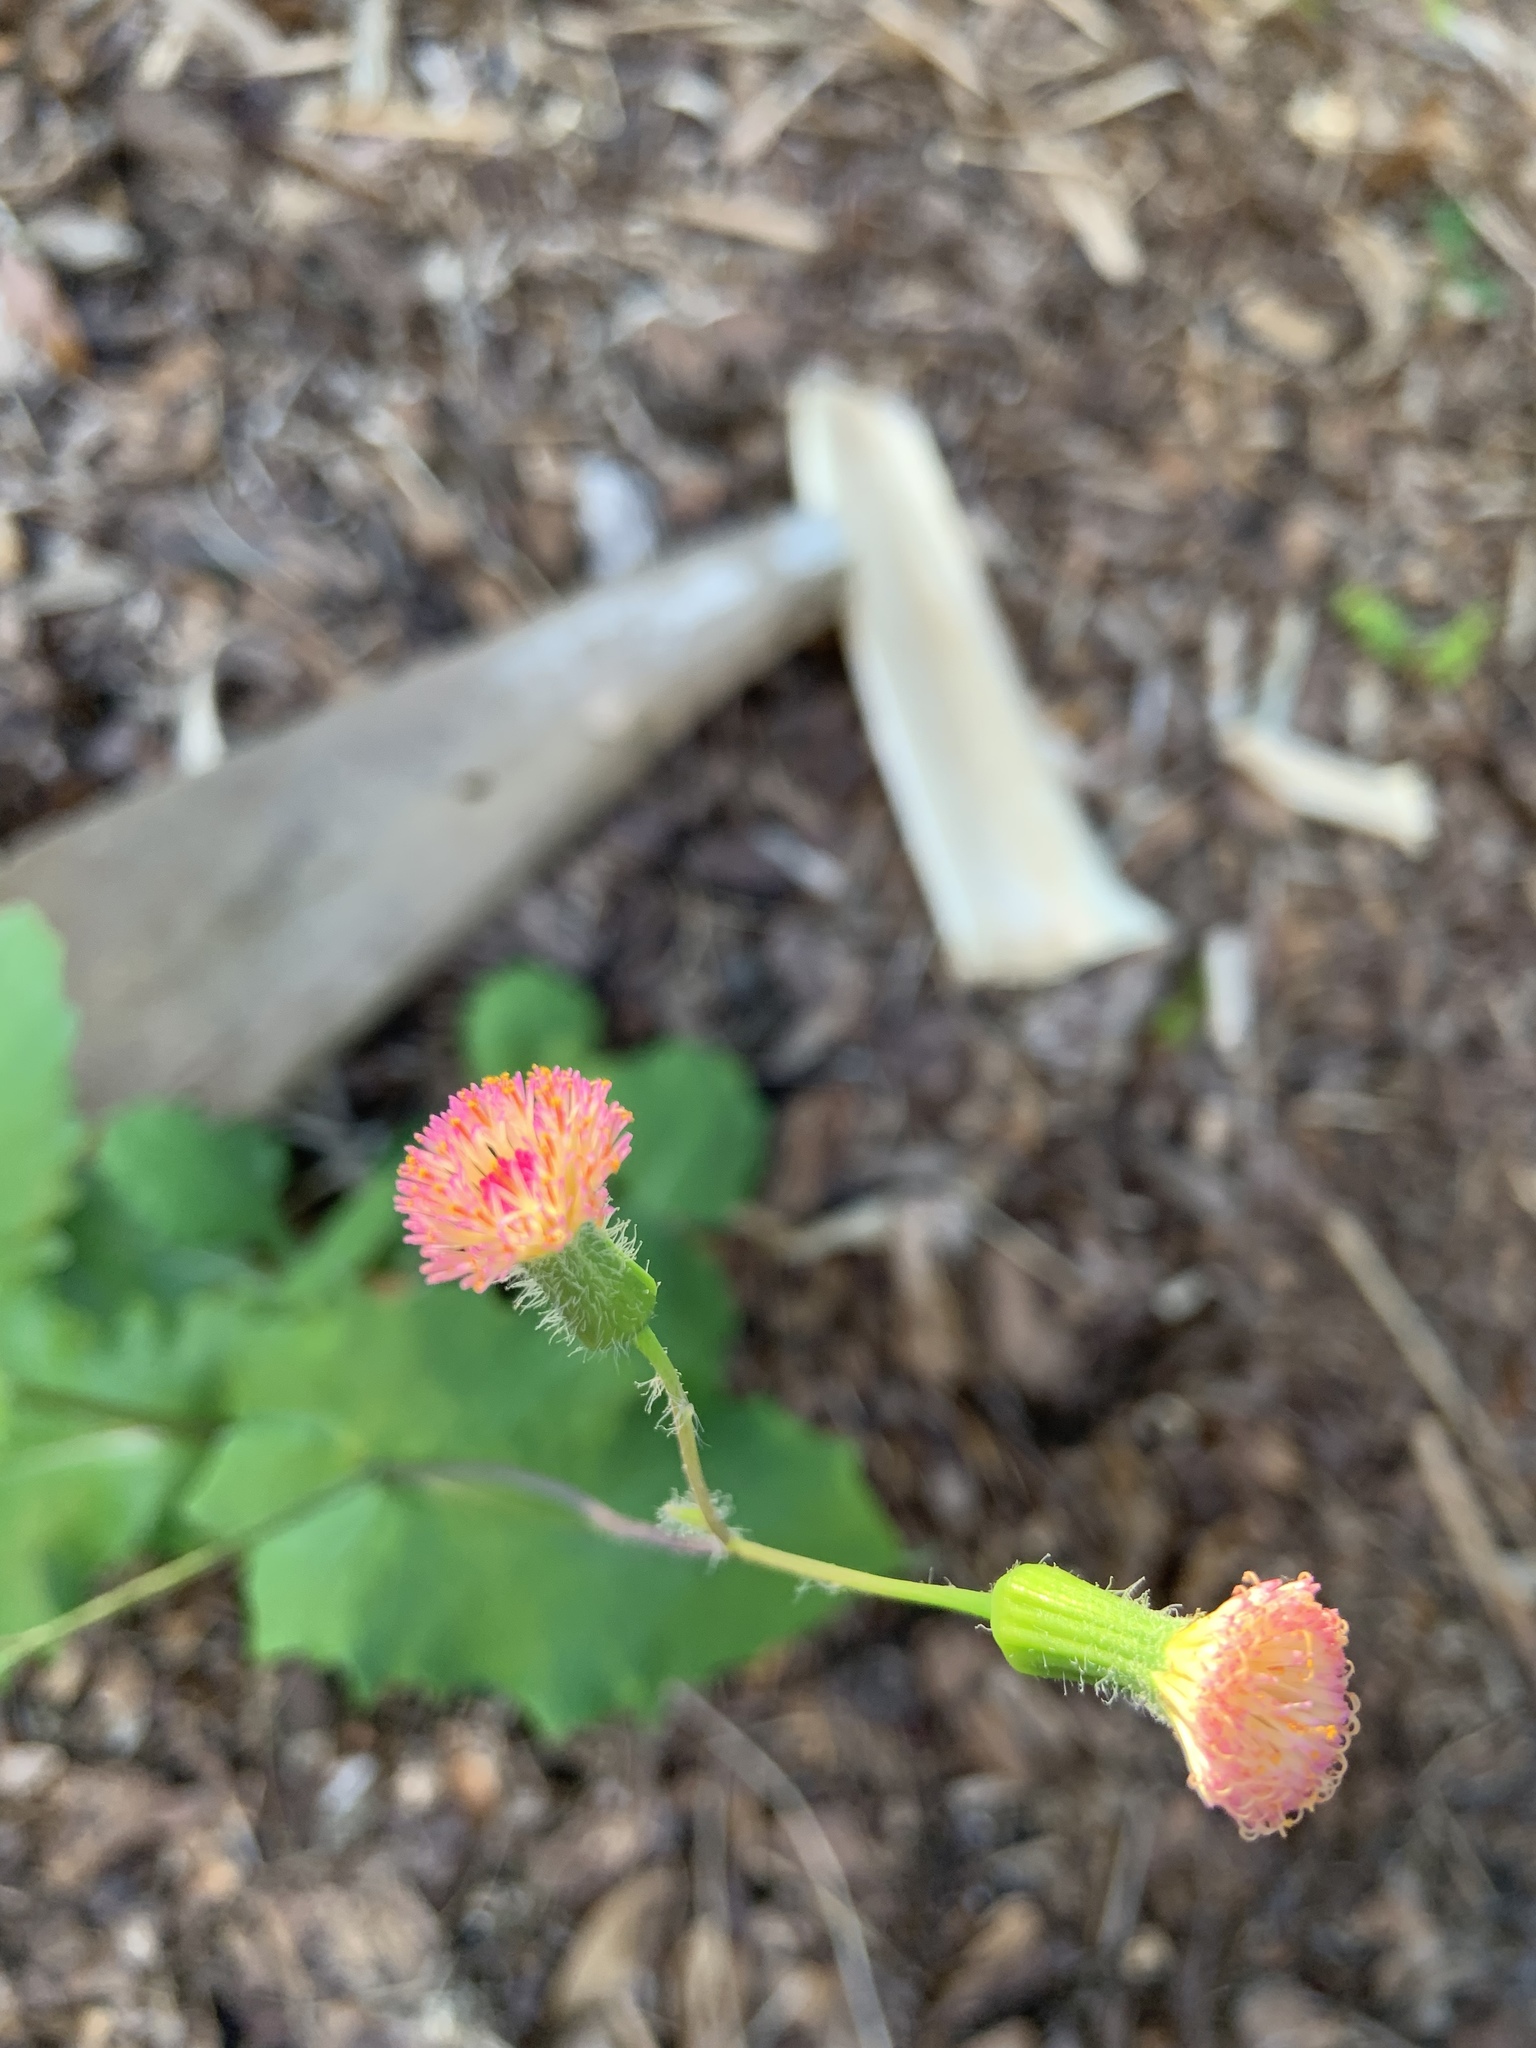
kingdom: Plantae
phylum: Tracheophyta
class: Magnoliopsida
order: Asterales
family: Asteraceae
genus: Emilia
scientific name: Emilia praetermissa
